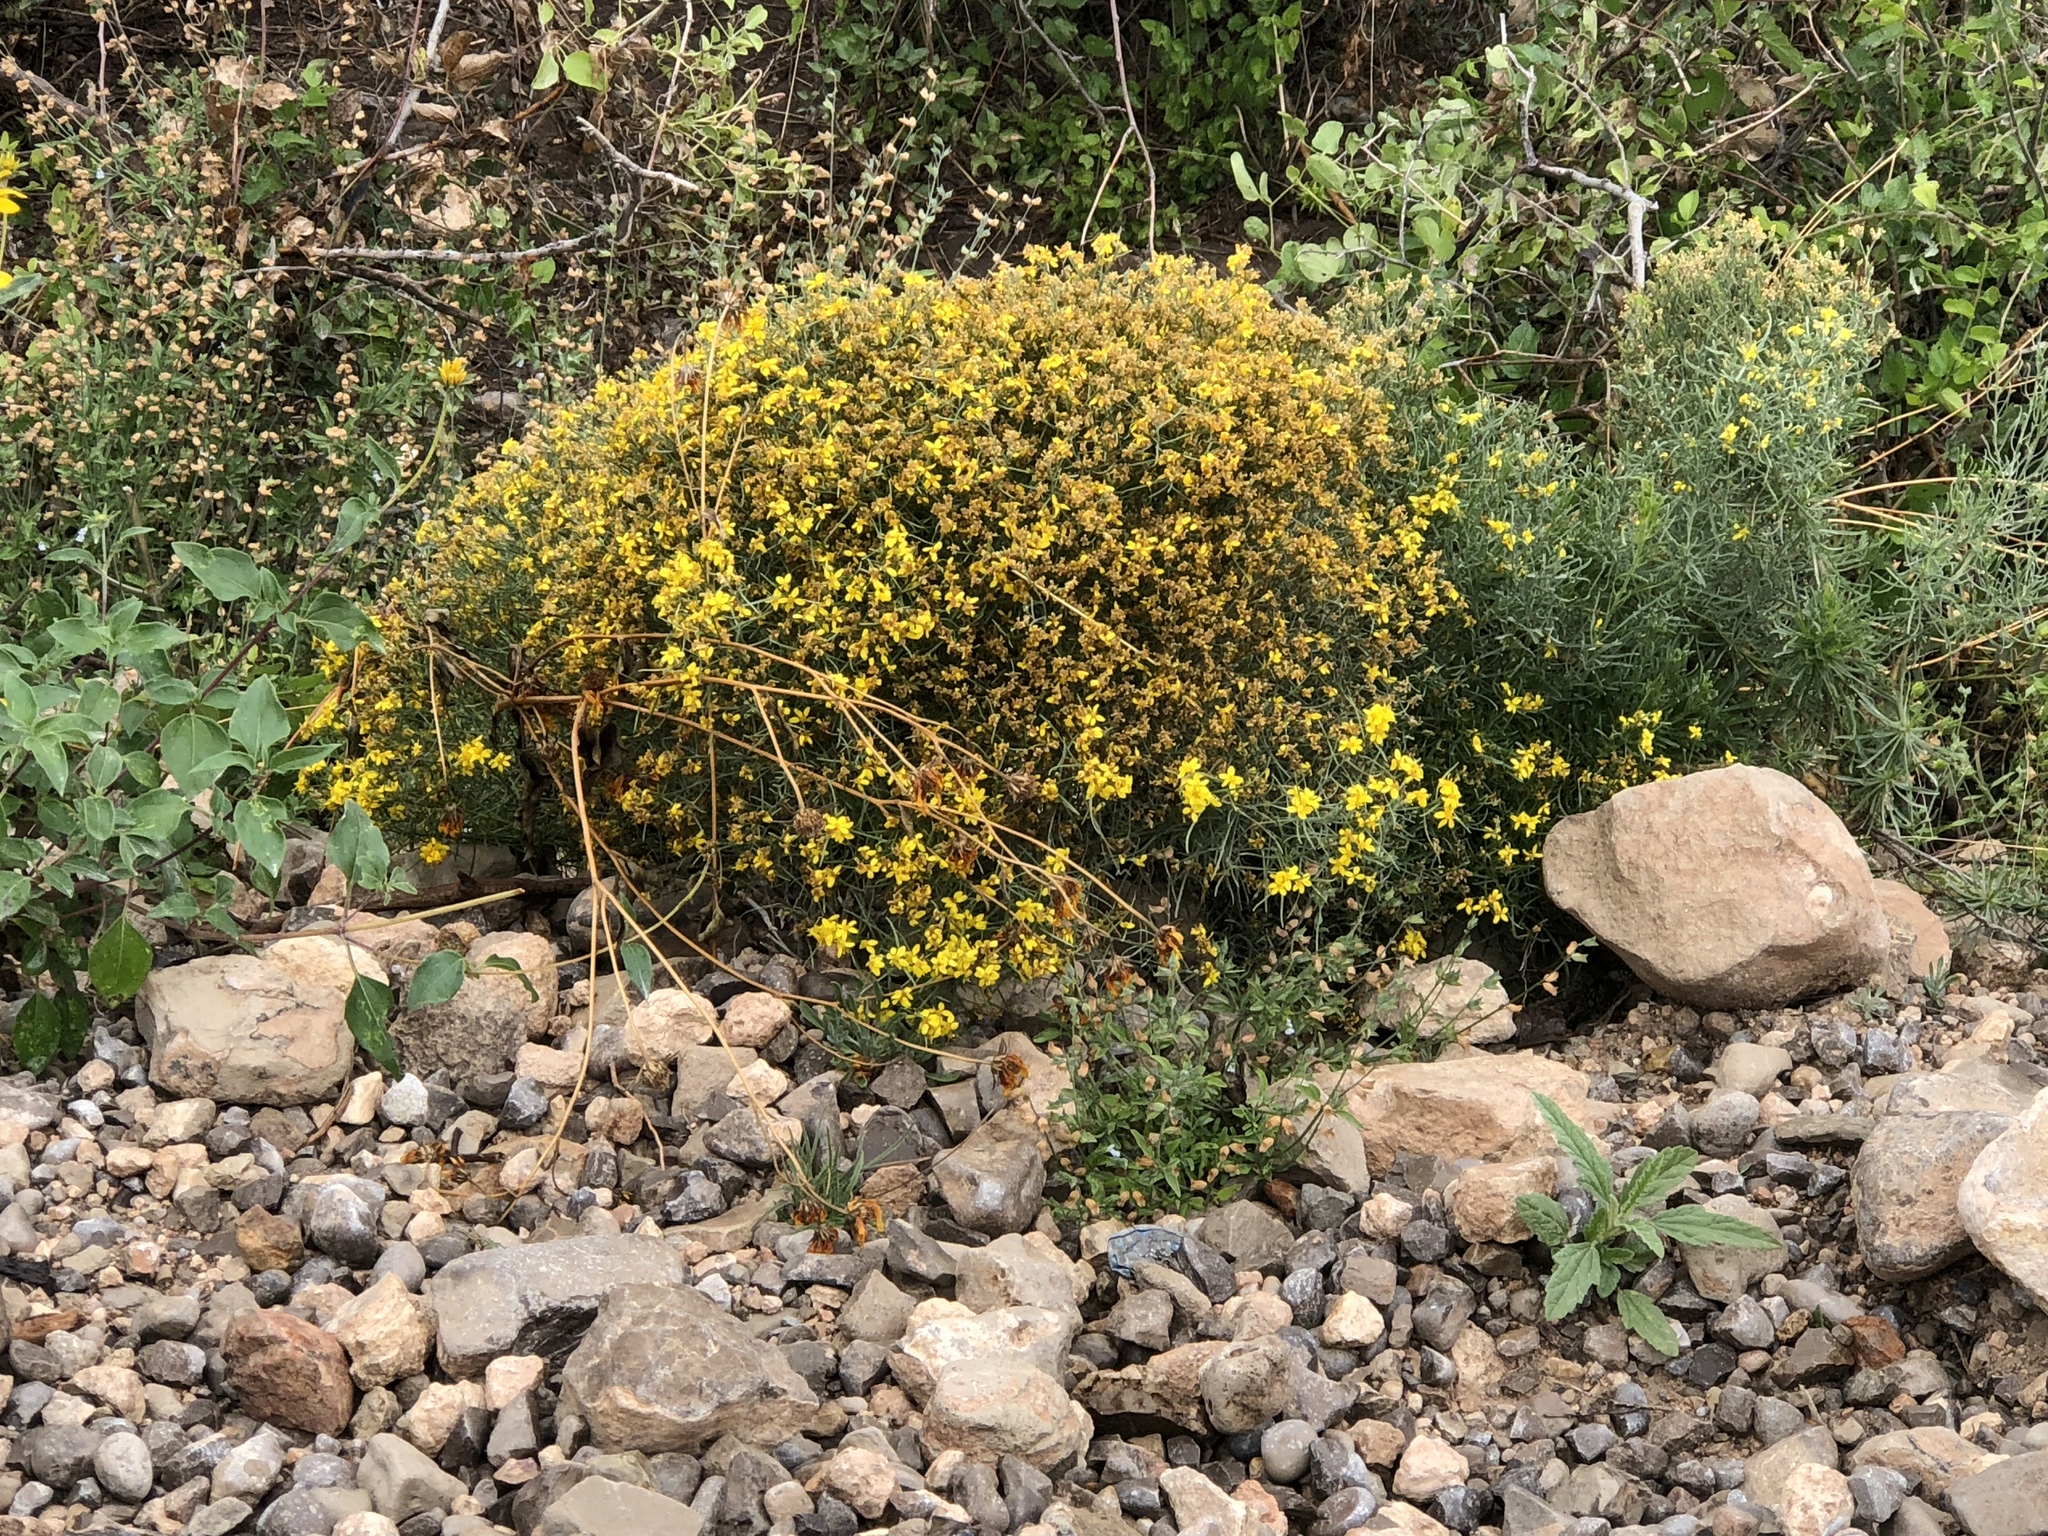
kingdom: Plantae
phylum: Tracheophyta
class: Magnoliopsida
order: Asterales
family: Asteraceae
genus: Gutierrezia
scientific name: Gutierrezia sarothrae
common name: Broom snakeweed
